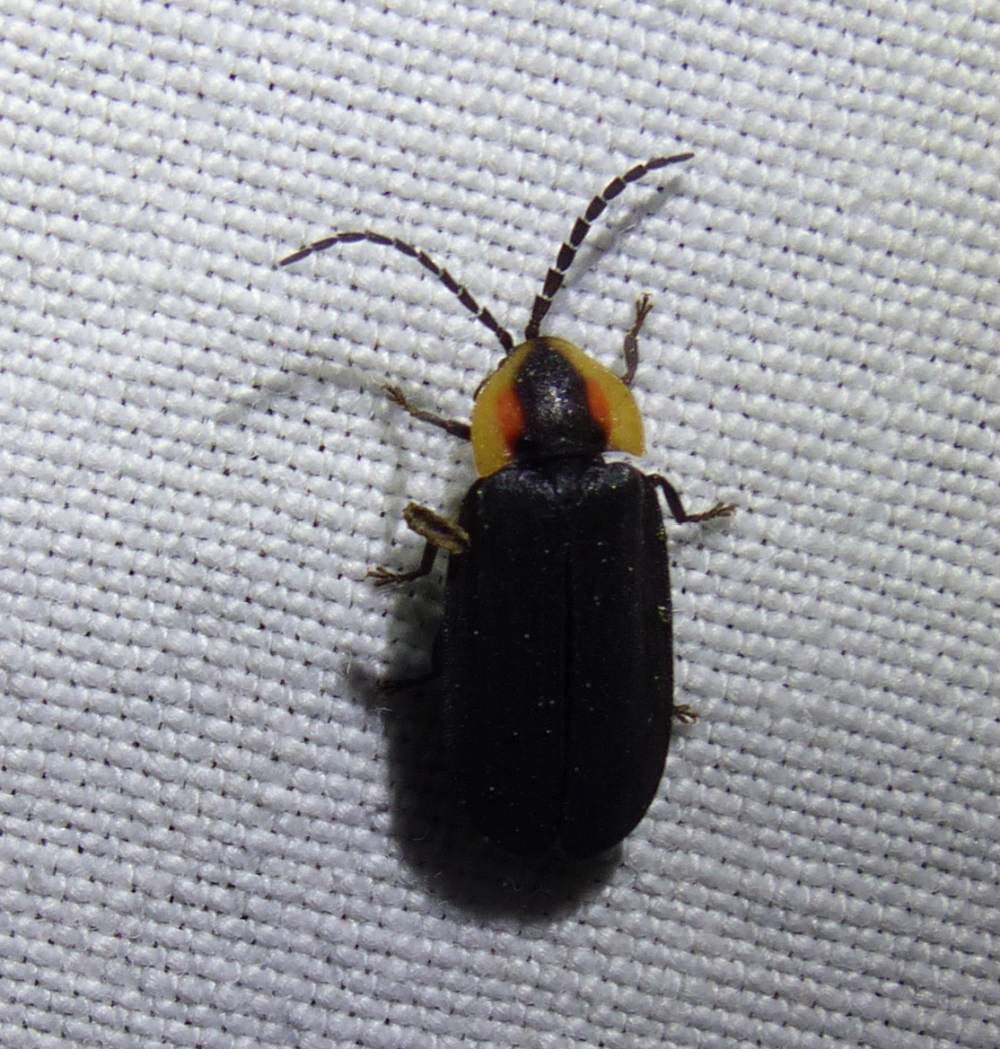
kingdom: Animalia
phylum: Arthropoda
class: Insecta
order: Coleoptera
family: Lampyridae
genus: Lucidota
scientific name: Lucidota atra
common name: Black firefly
